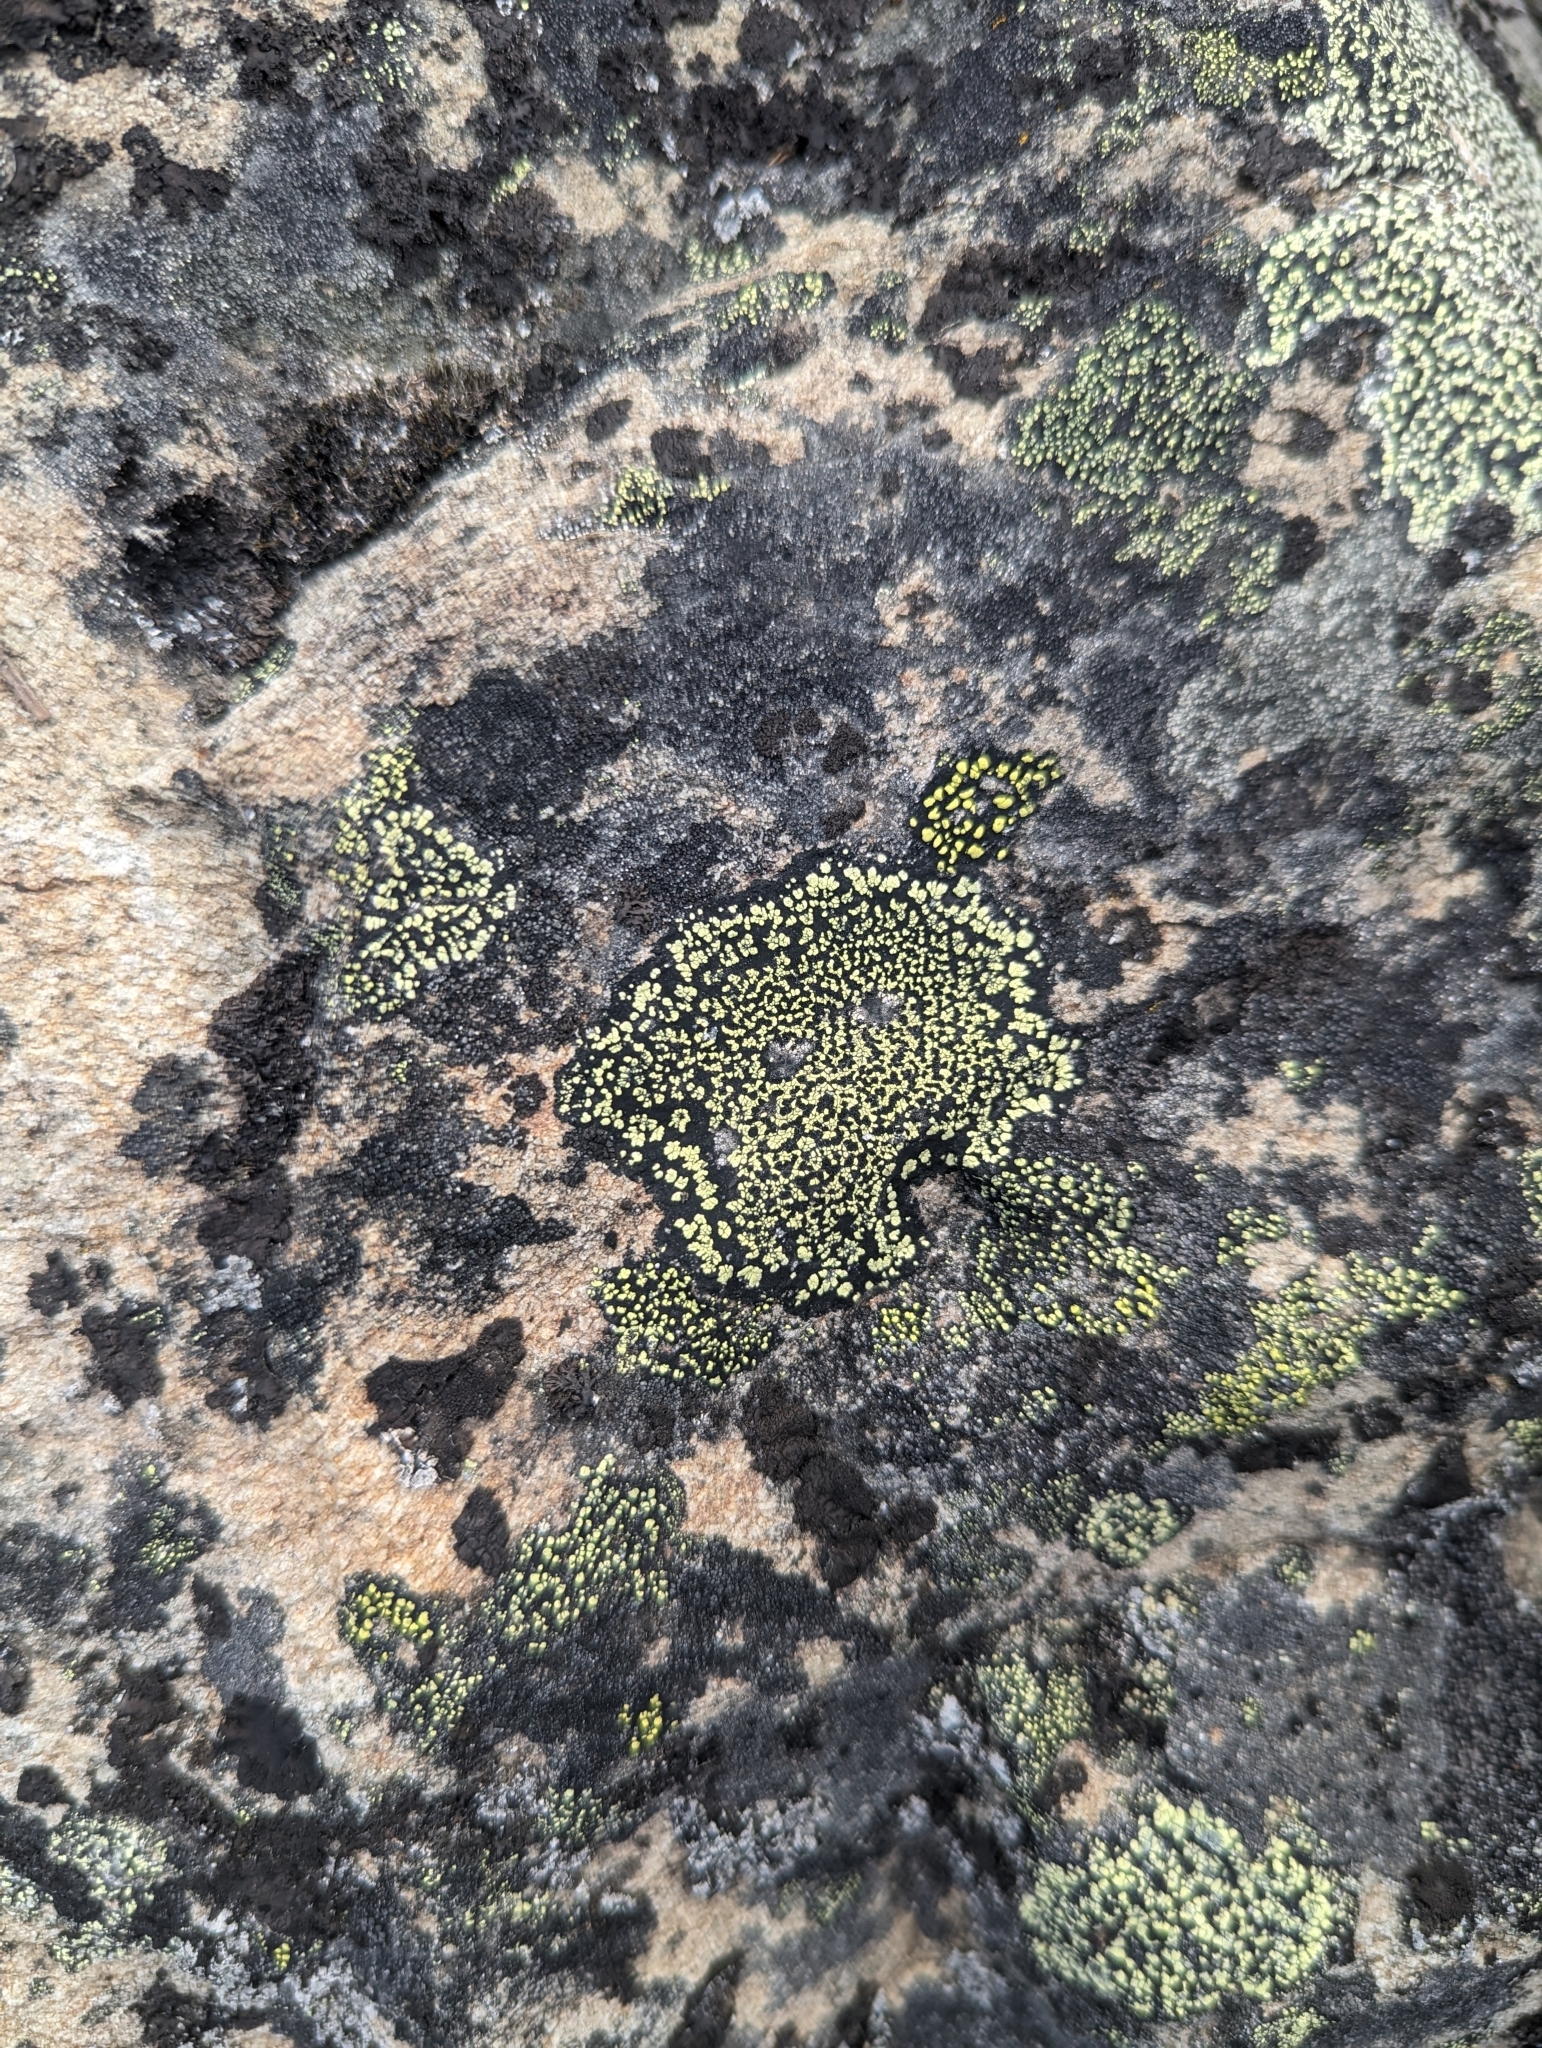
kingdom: Fungi
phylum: Ascomycota
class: Lecanoromycetes
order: Rhizocarpales
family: Rhizocarpaceae
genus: Rhizocarpon
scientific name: Rhizocarpon geographicum
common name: Yellow map lichen
